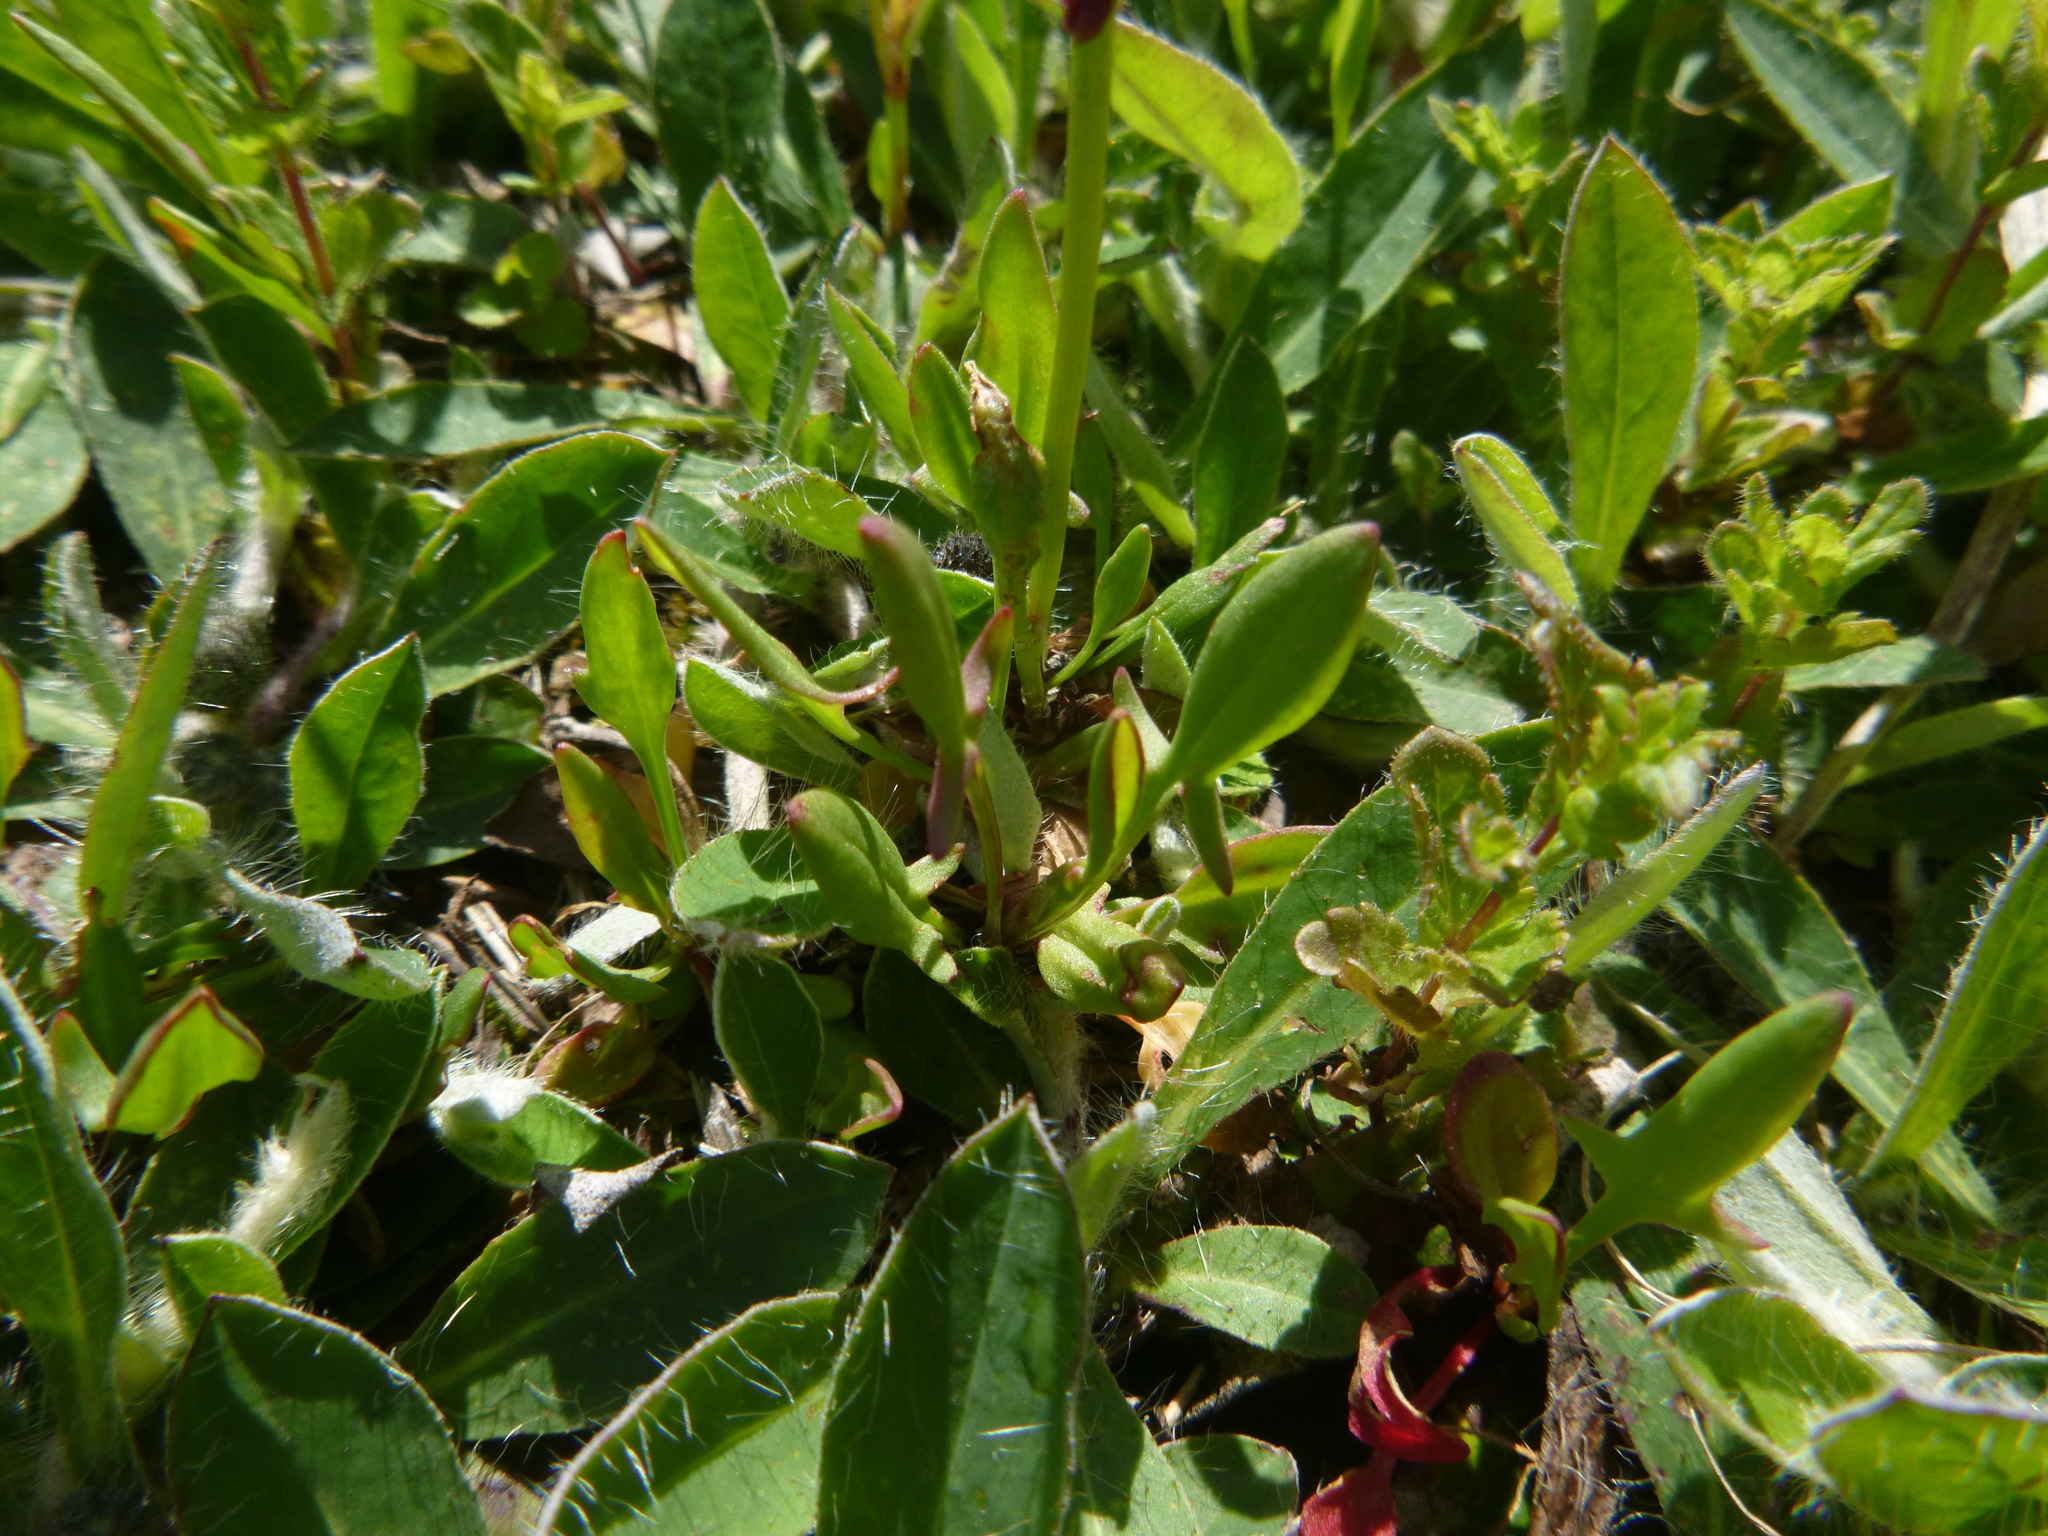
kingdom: Plantae
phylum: Tracheophyta
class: Magnoliopsida
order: Caryophyllales
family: Polygonaceae
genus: Rumex
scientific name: Rumex acetosella
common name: Common sheep sorrel
